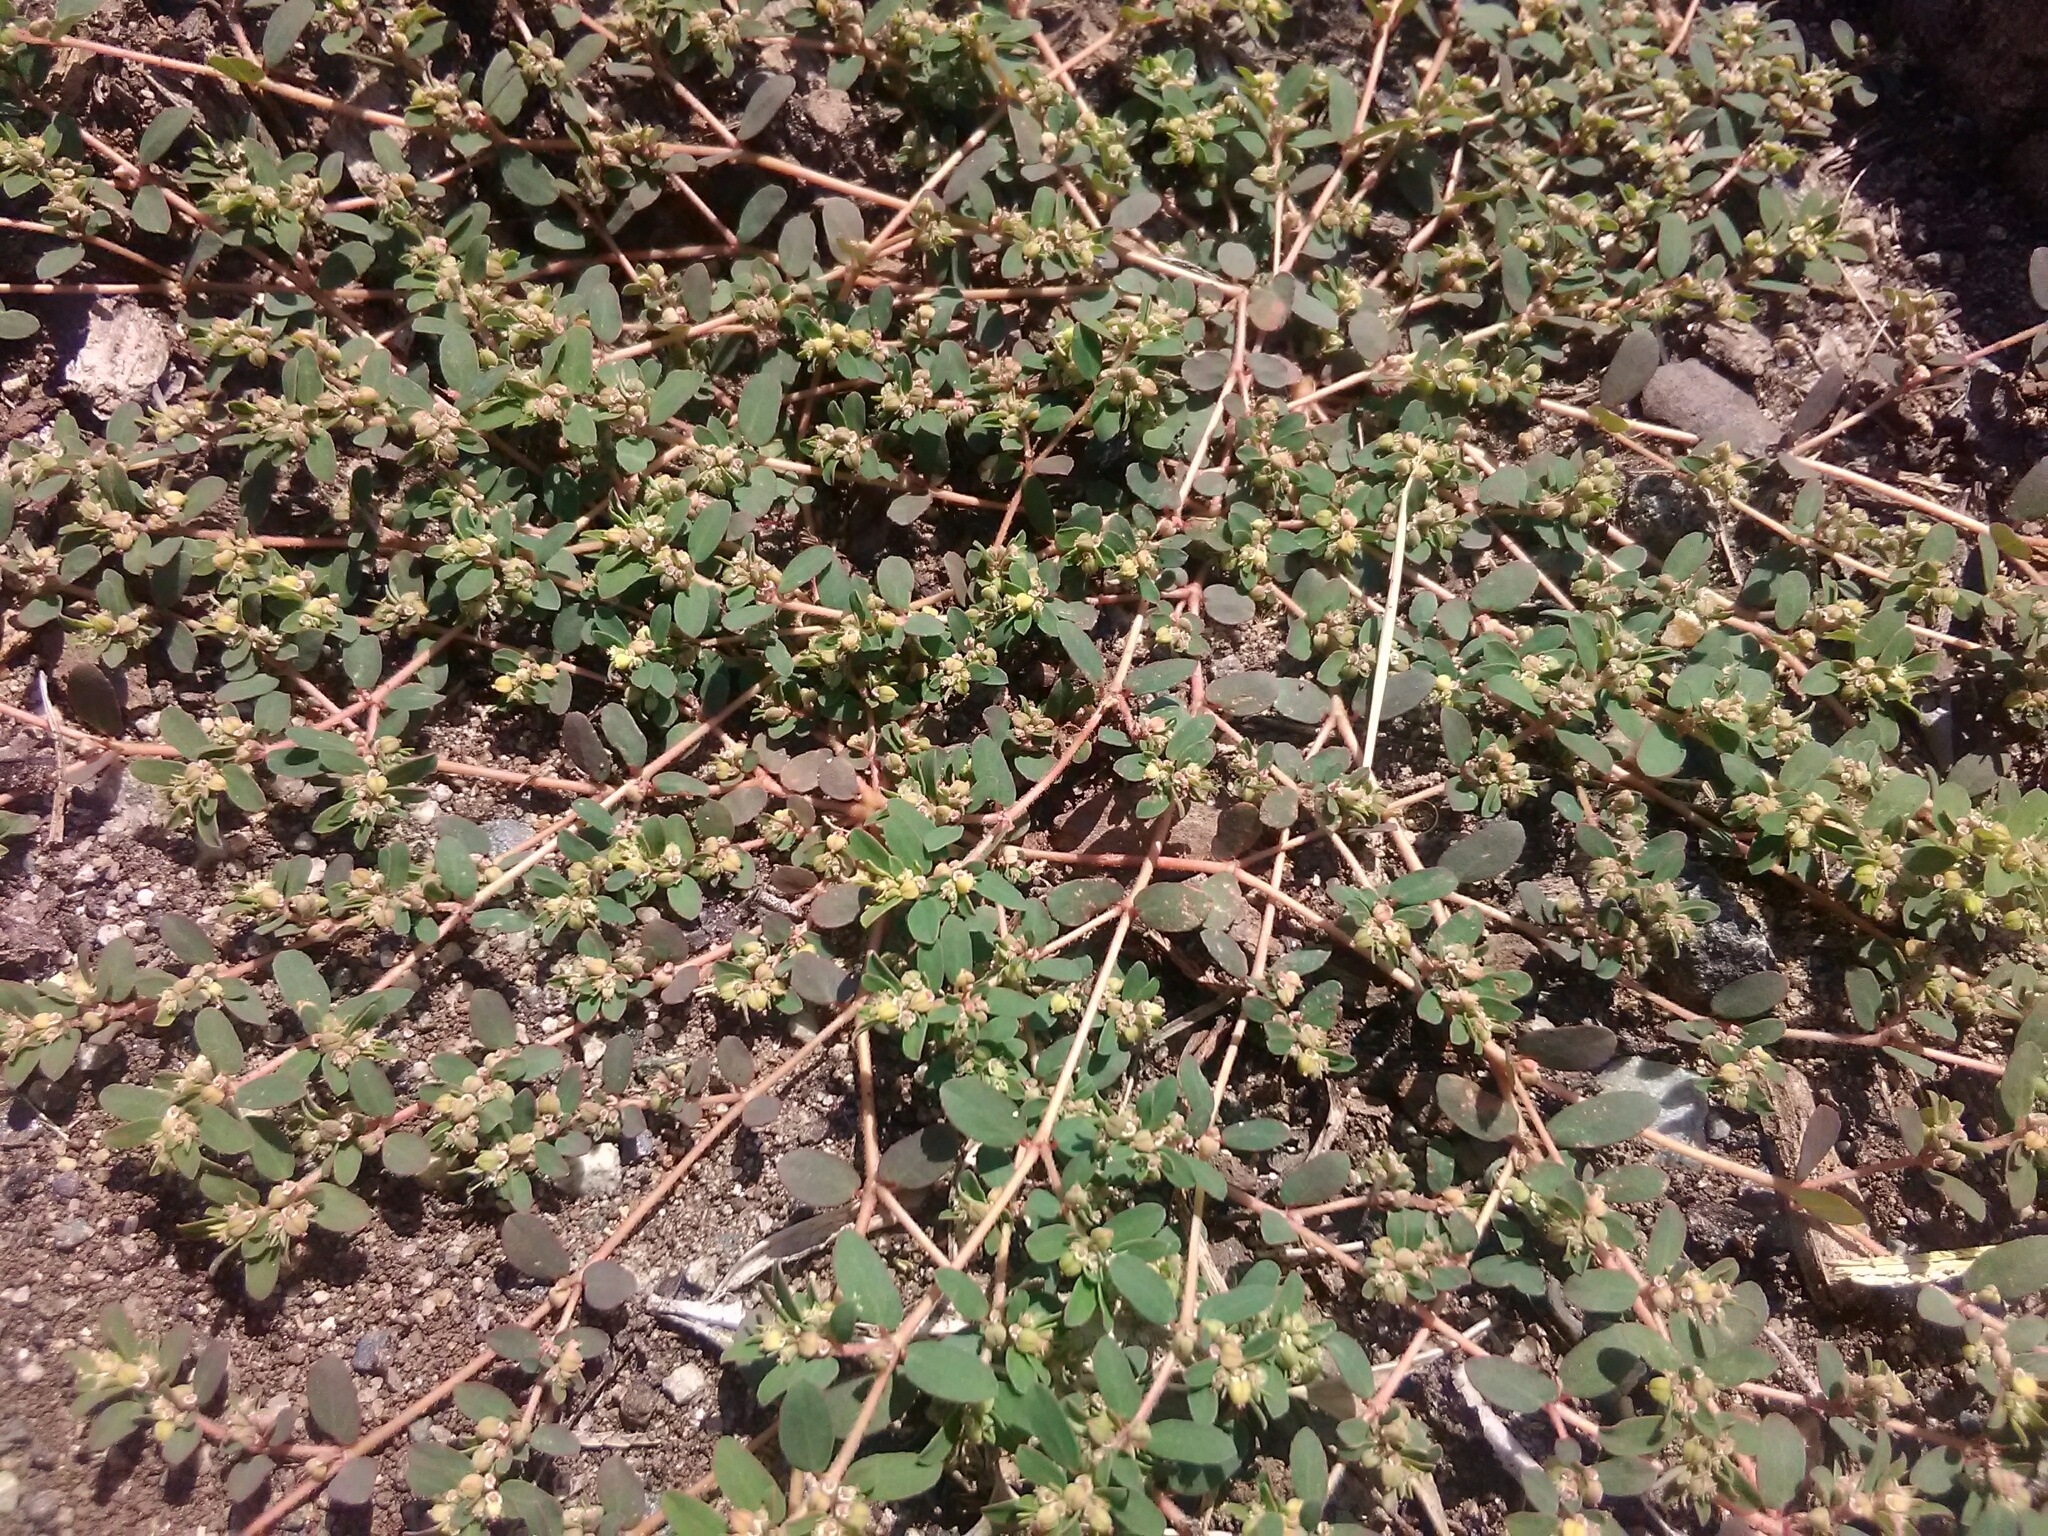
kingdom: Plantae
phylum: Tracheophyta
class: Magnoliopsida
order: Malpighiales
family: Euphorbiaceae
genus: Euphorbia
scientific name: Euphorbia maculata
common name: Spotted spurge
